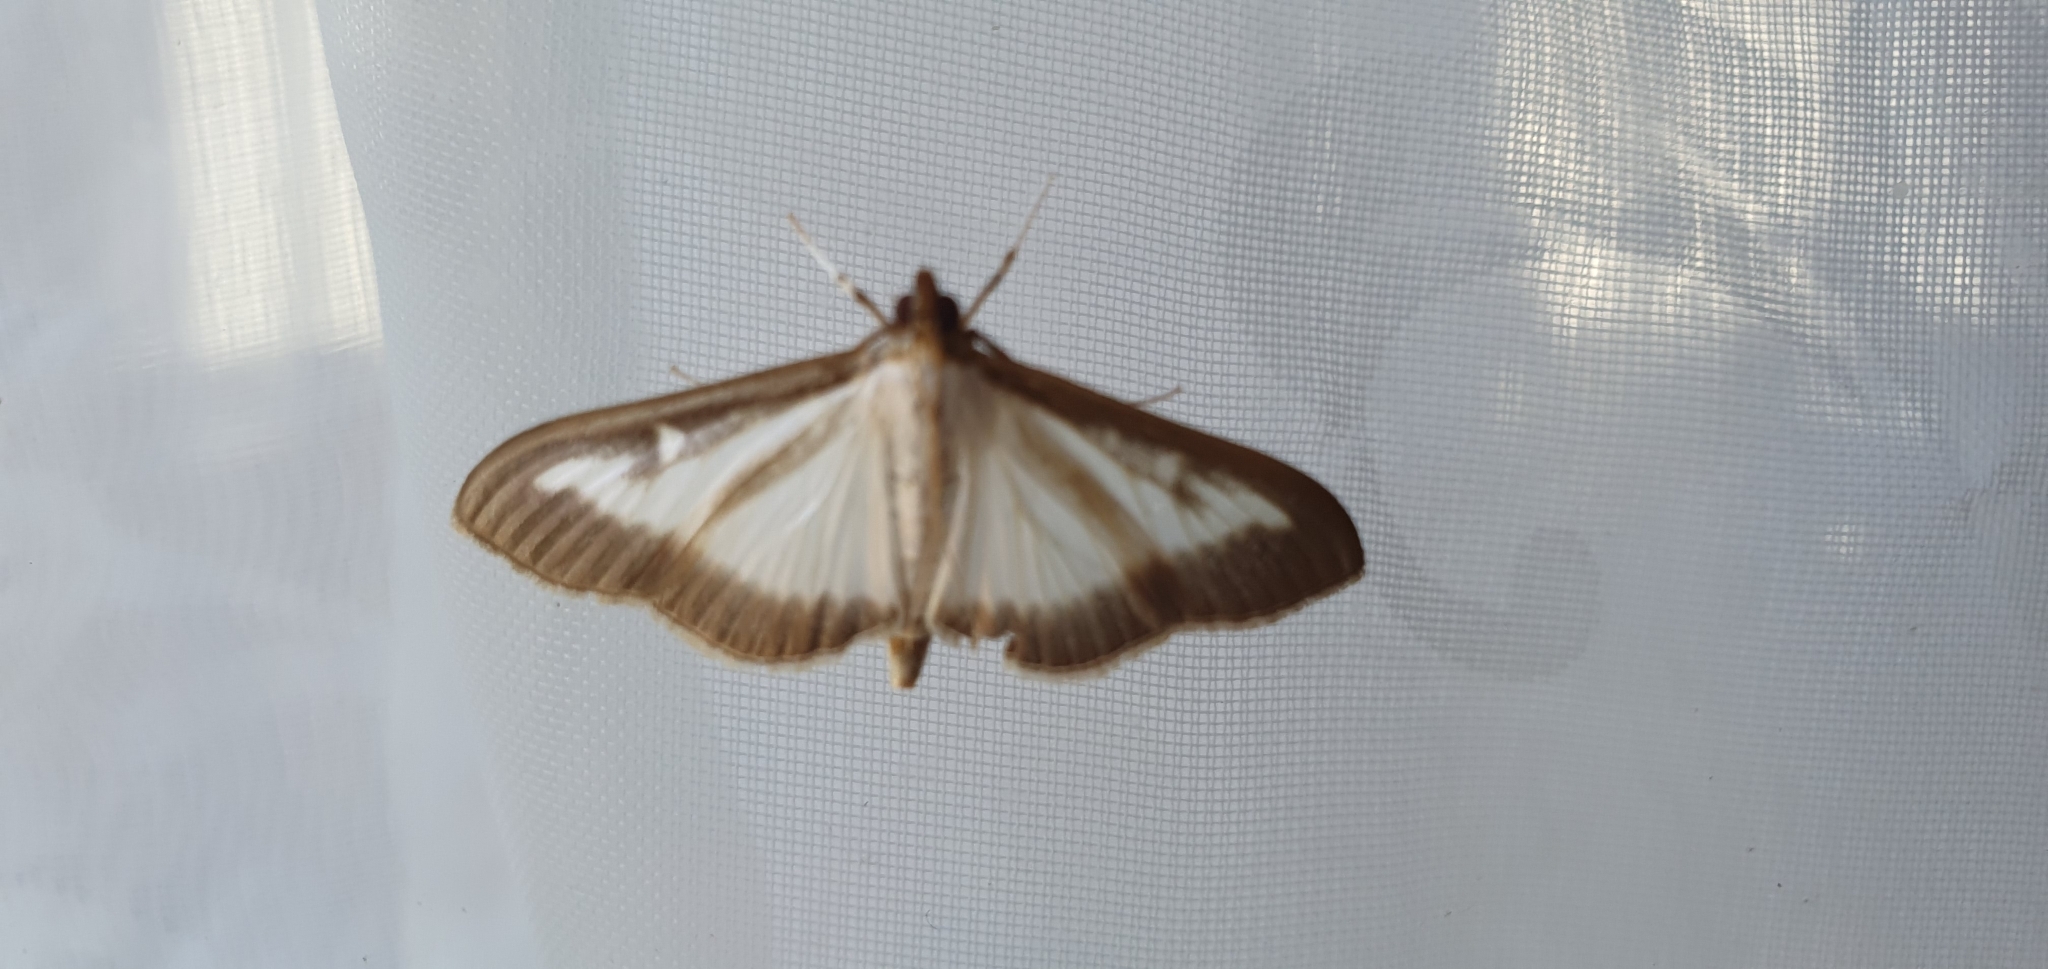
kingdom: Animalia
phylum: Arthropoda
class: Insecta
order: Lepidoptera
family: Crambidae
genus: Cydalima
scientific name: Cydalima perspectalis
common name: Box tree moth
